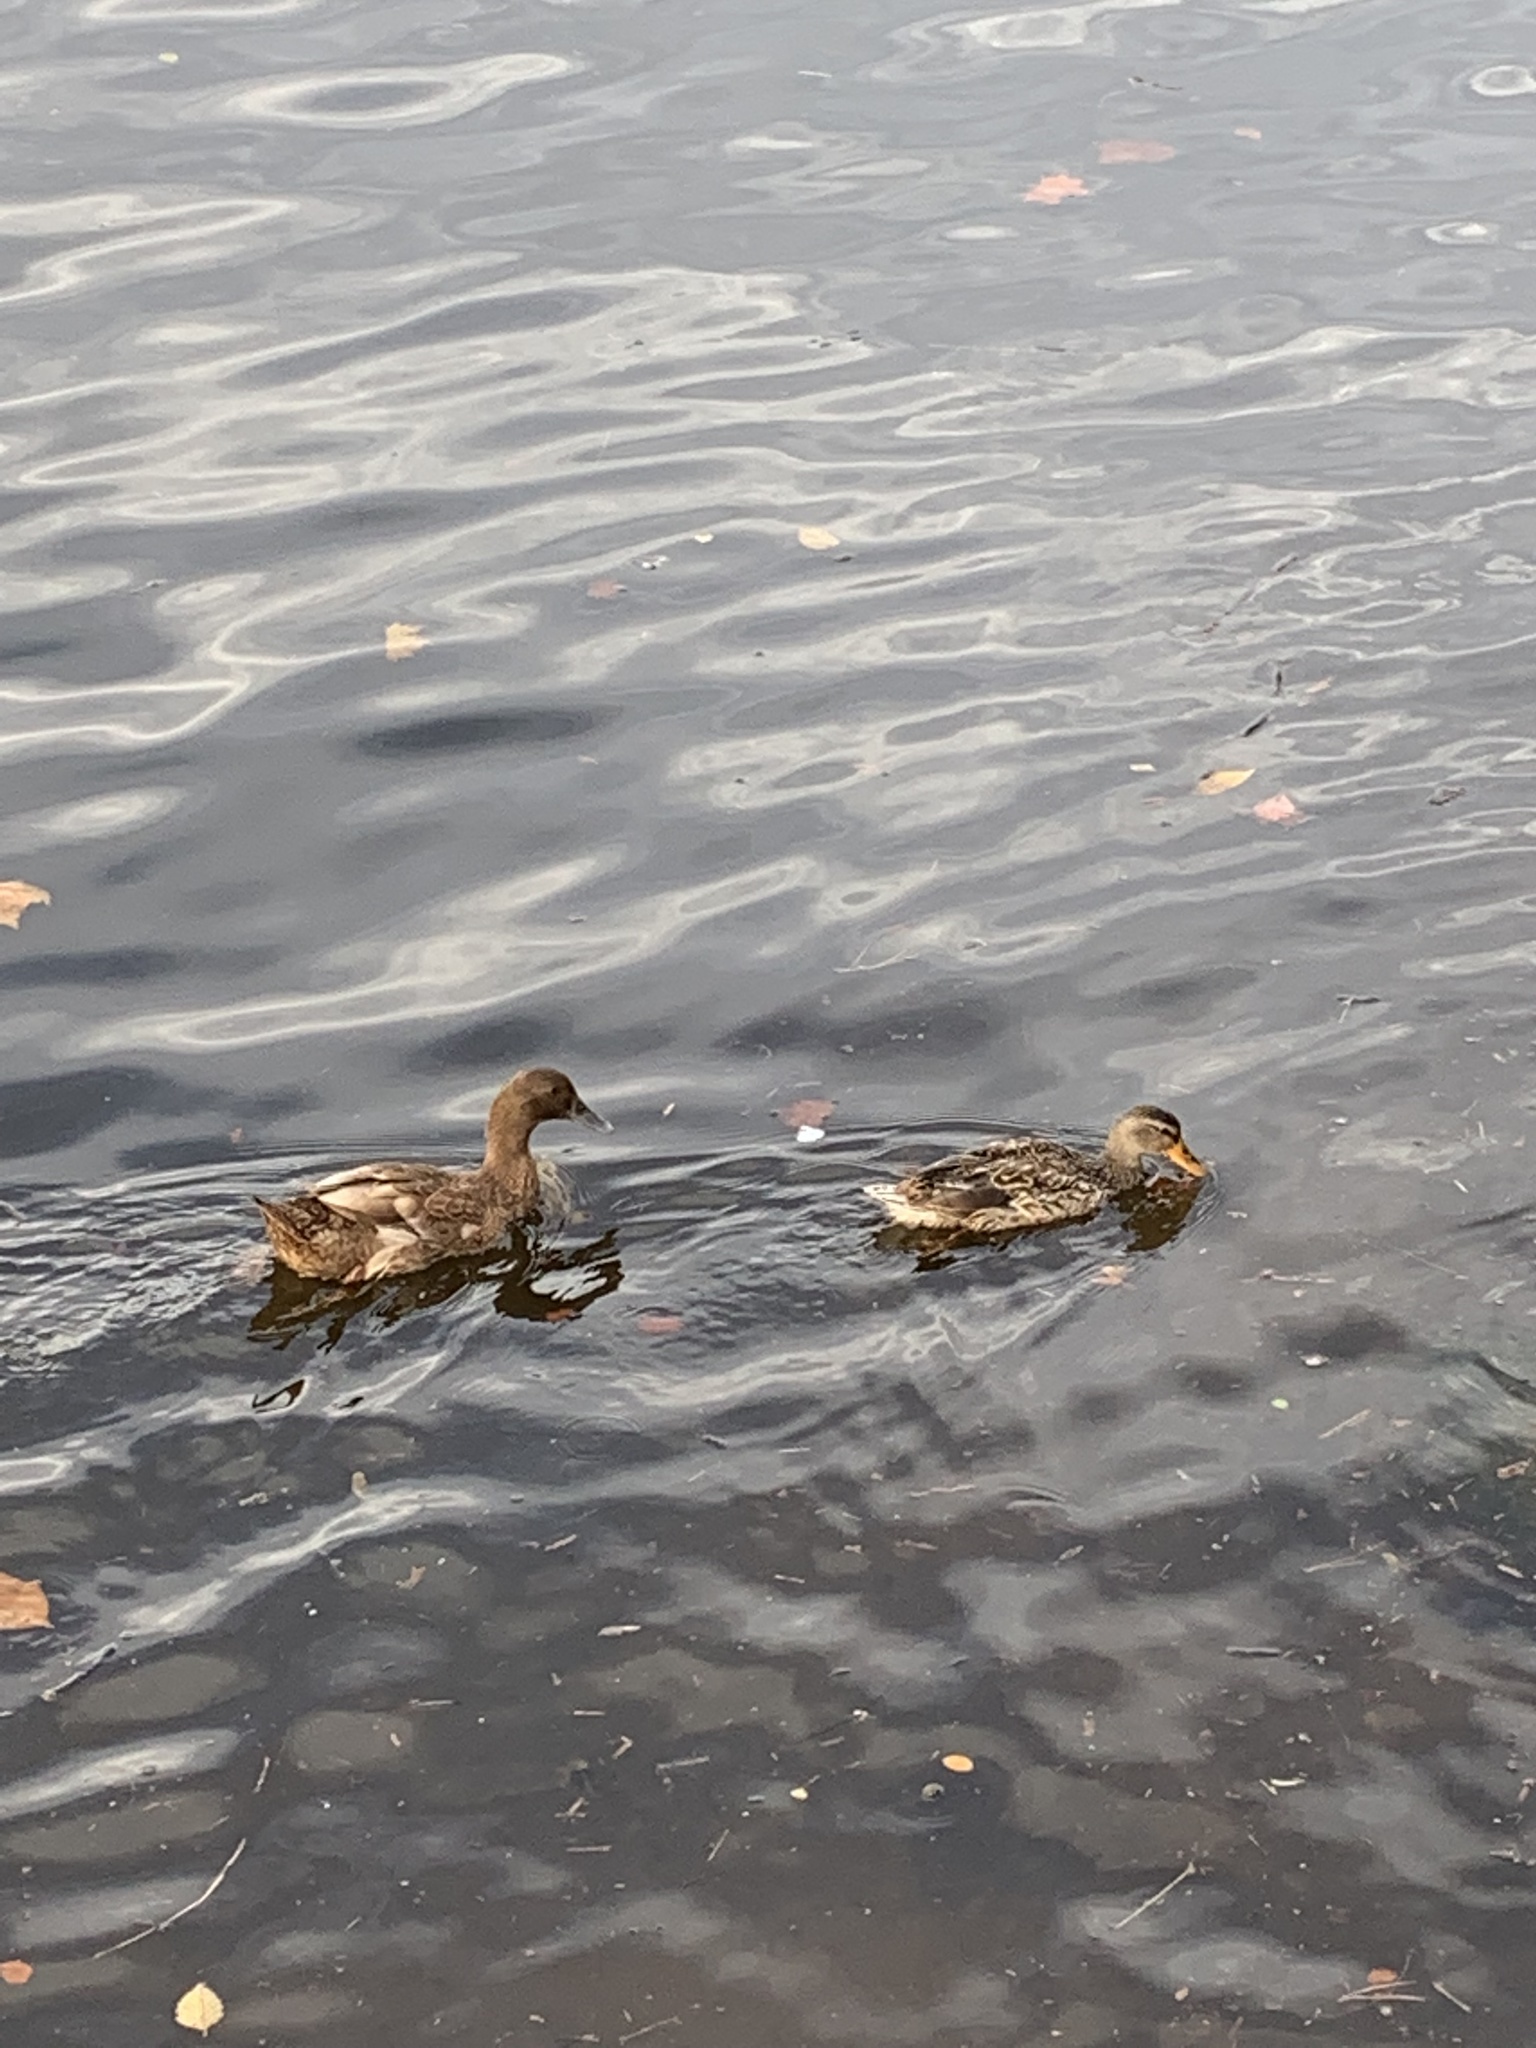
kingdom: Animalia
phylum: Chordata
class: Aves
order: Anseriformes
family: Anatidae
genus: Anas
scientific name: Anas platyrhynchos
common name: Mallard
